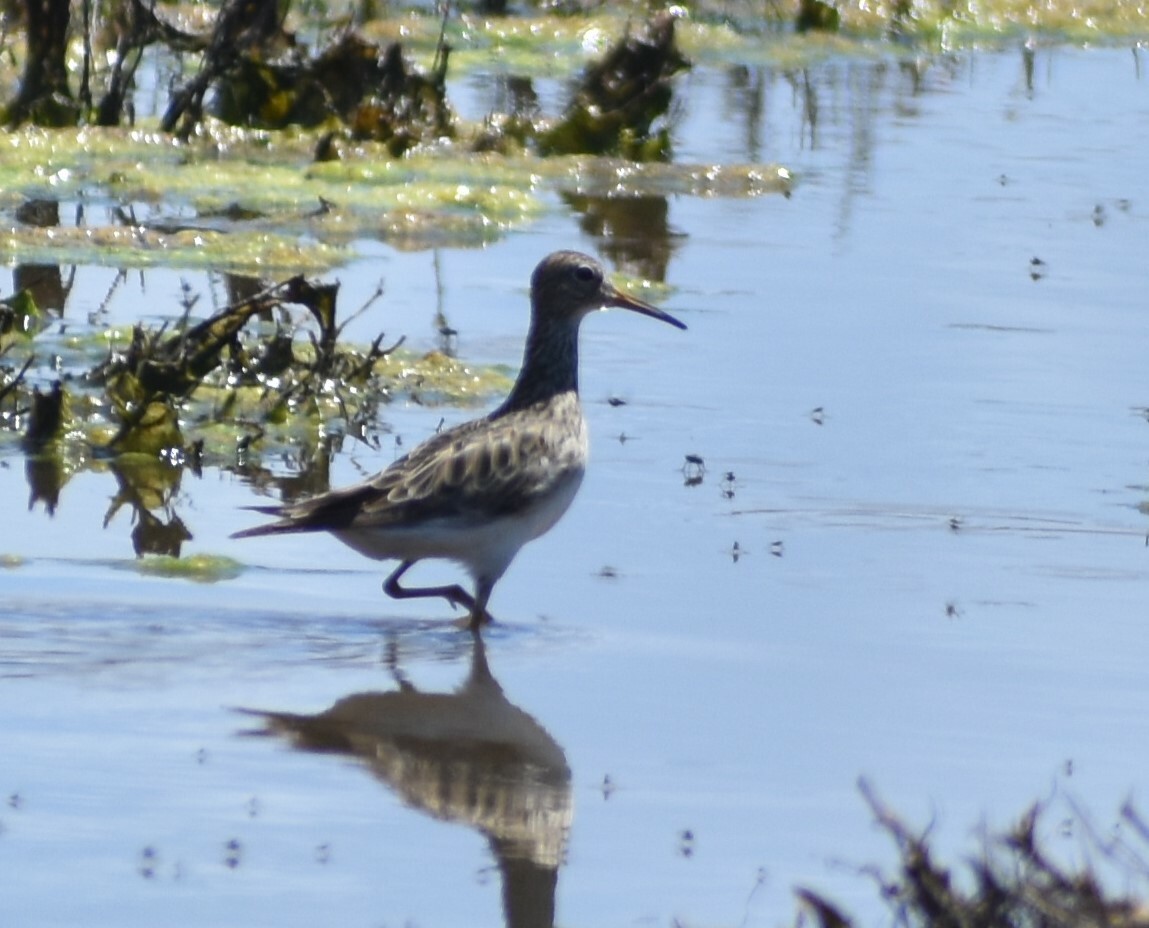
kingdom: Animalia
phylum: Chordata
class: Aves
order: Charadriiformes
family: Scolopacidae
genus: Calidris
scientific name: Calidris melanotos
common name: Pectoral sandpiper
